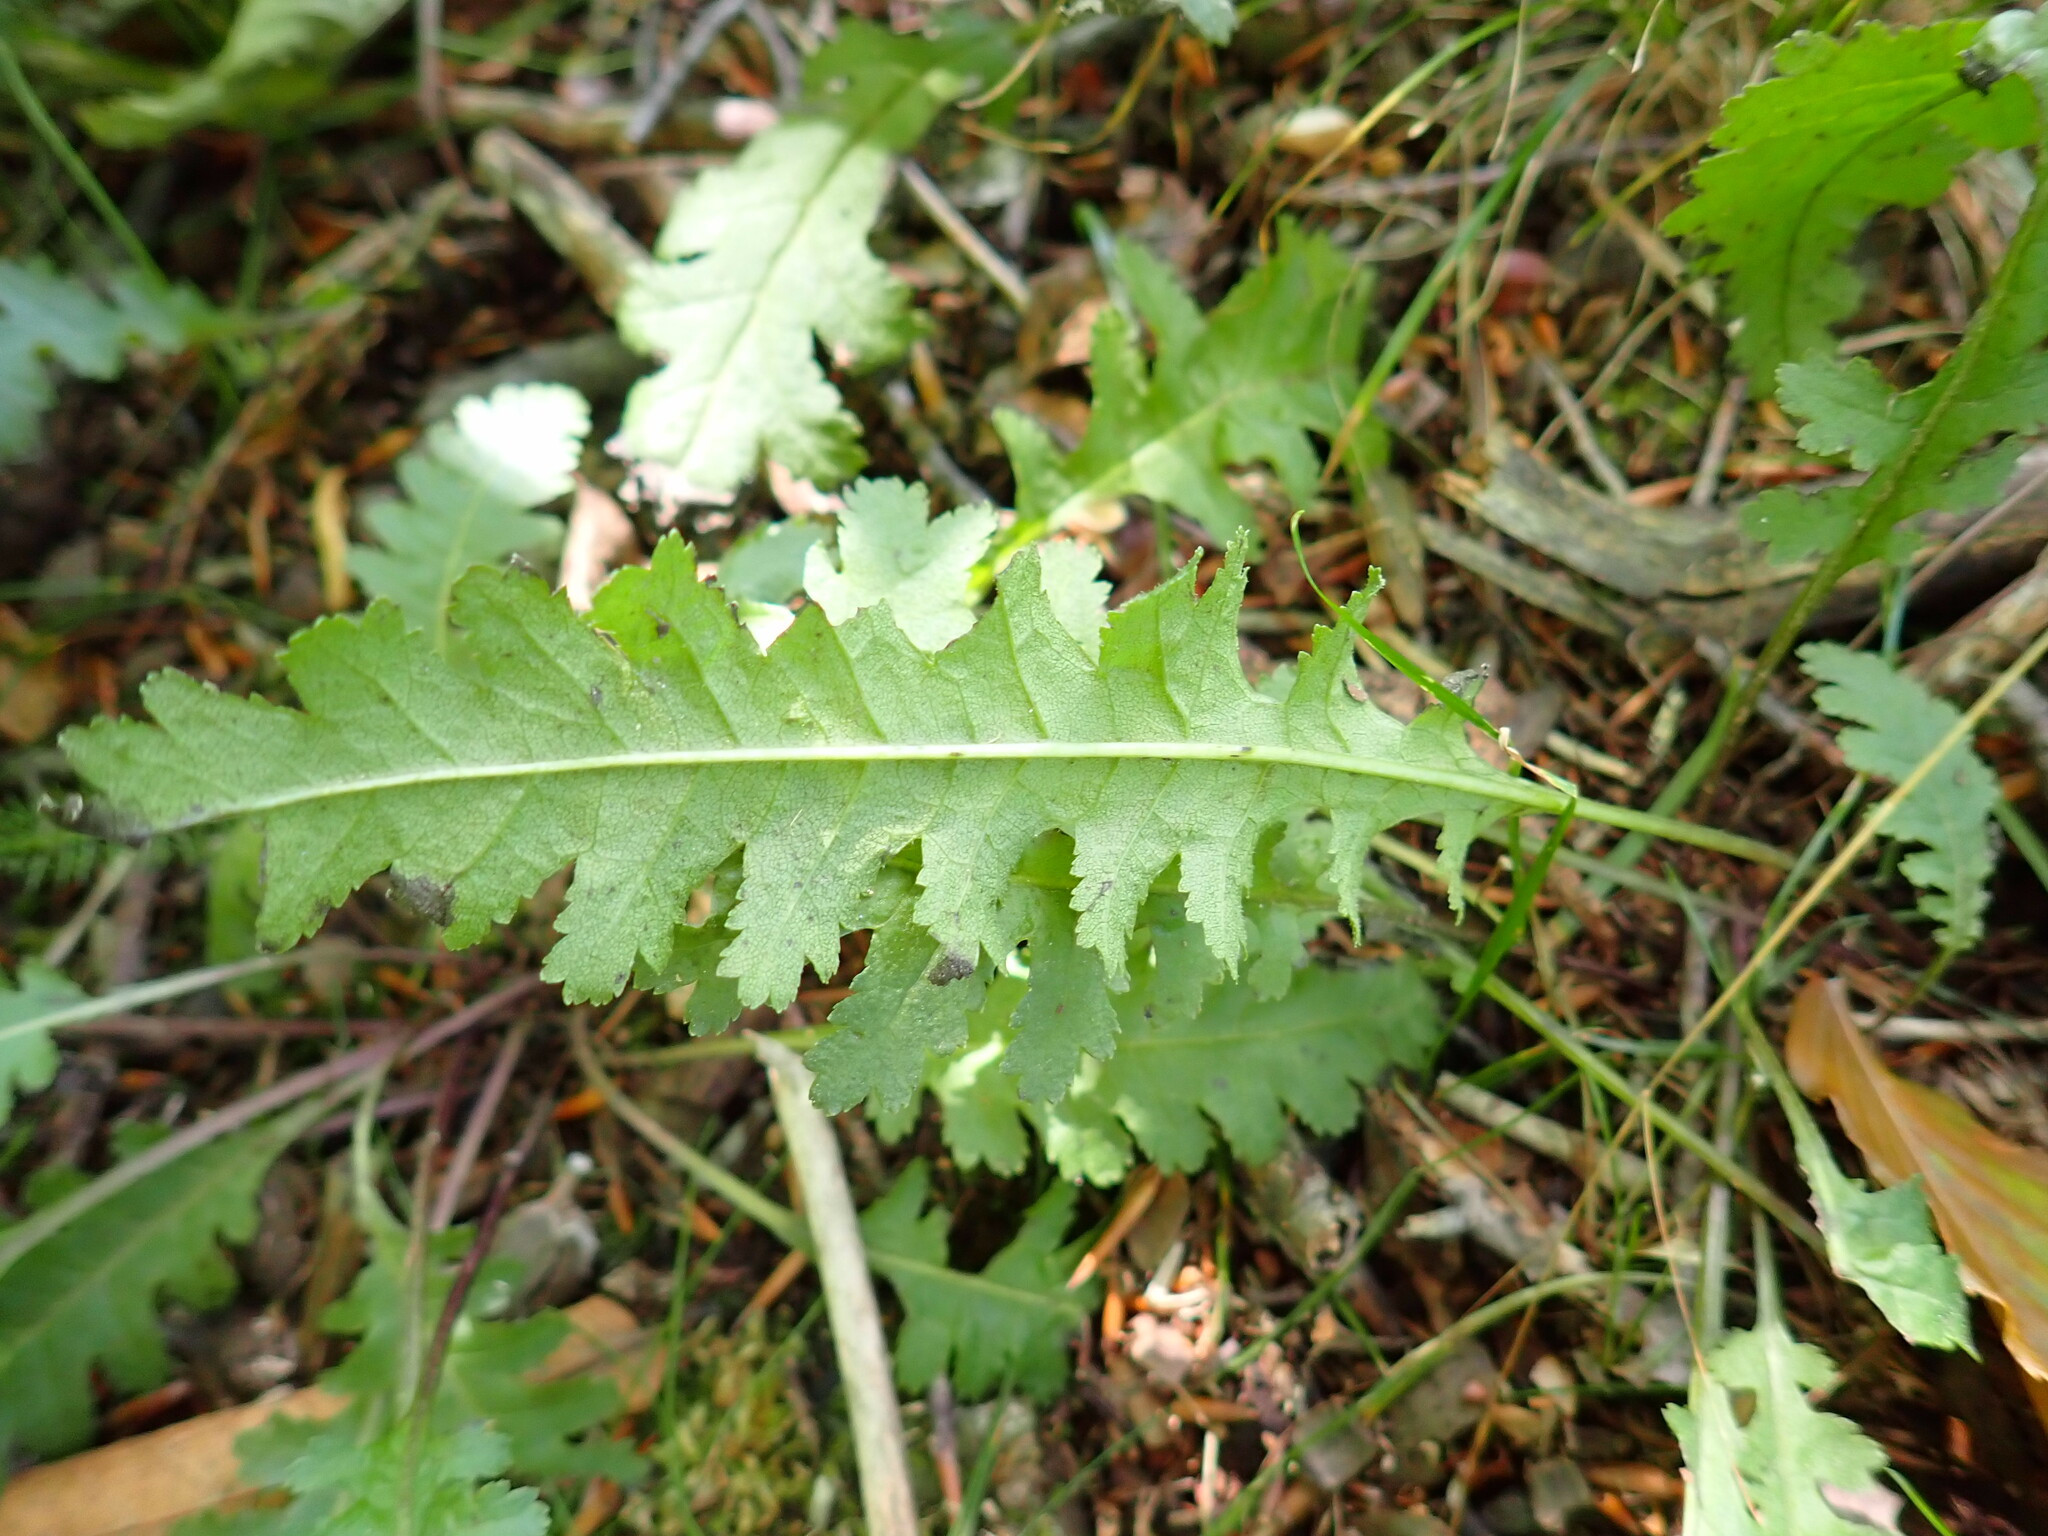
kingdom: Plantae
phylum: Tracheophyta
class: Magnoliopsida
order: Lamiales
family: Orobanchaceae
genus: Pedicularis
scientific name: Pedicularis canadensis
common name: Early lousewort
